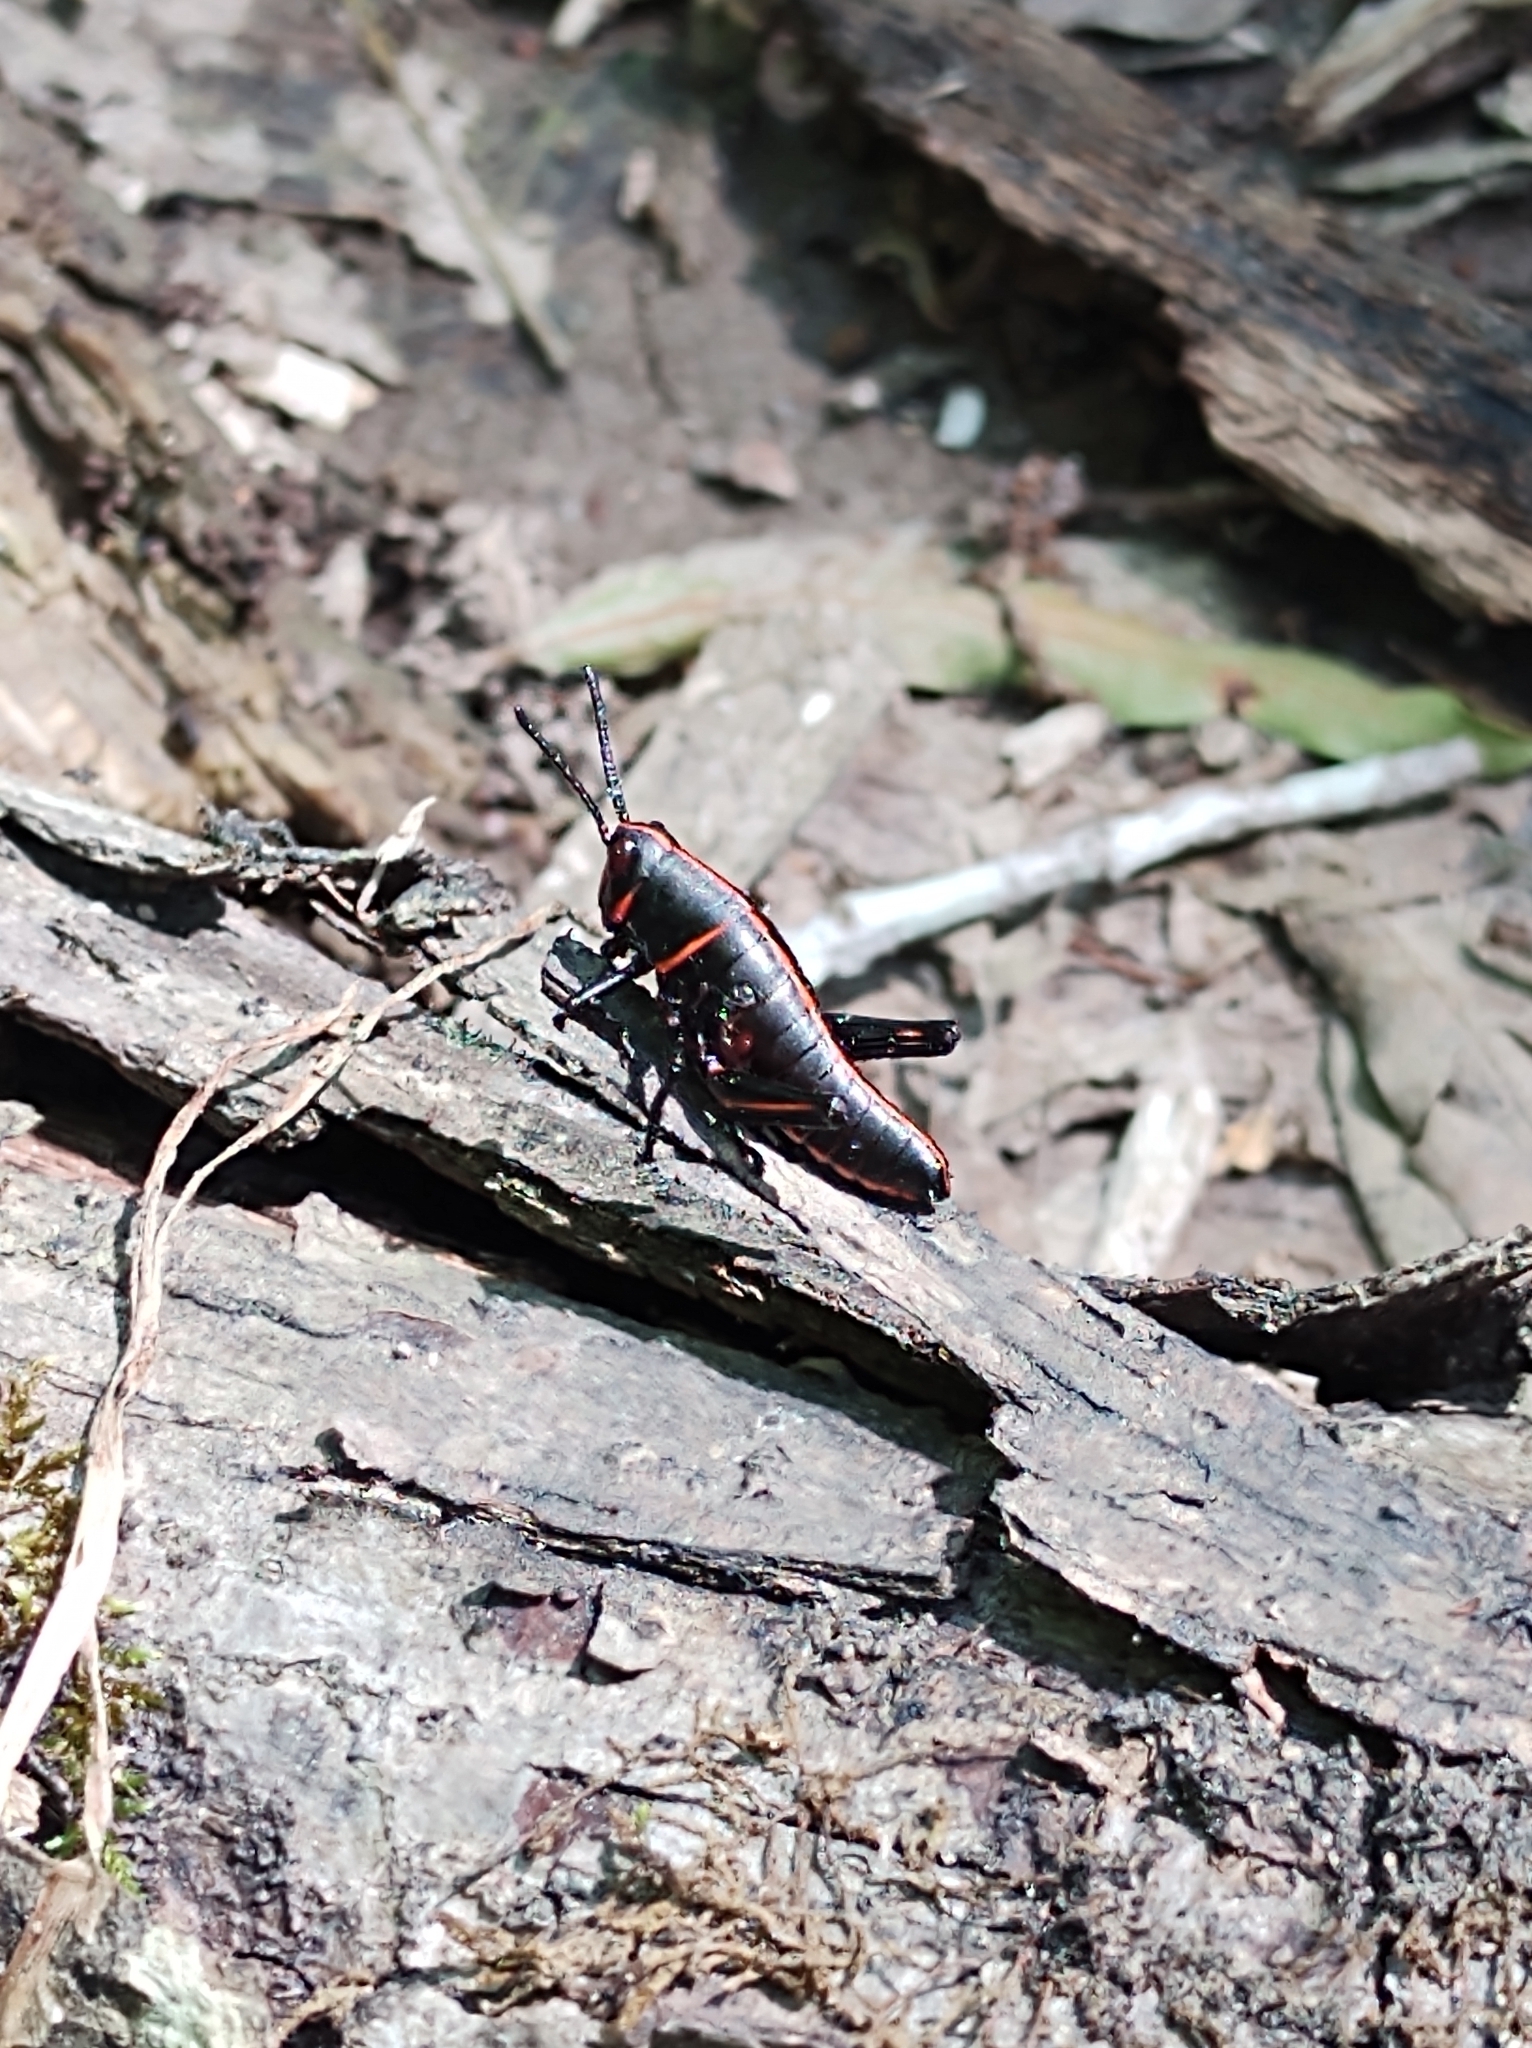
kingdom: Animalia
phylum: Arthropoda
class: Insecta
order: Orthoptera
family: Romaleidae
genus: Romalea
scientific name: Romalea microptera
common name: Eastern lubber grasshopper
